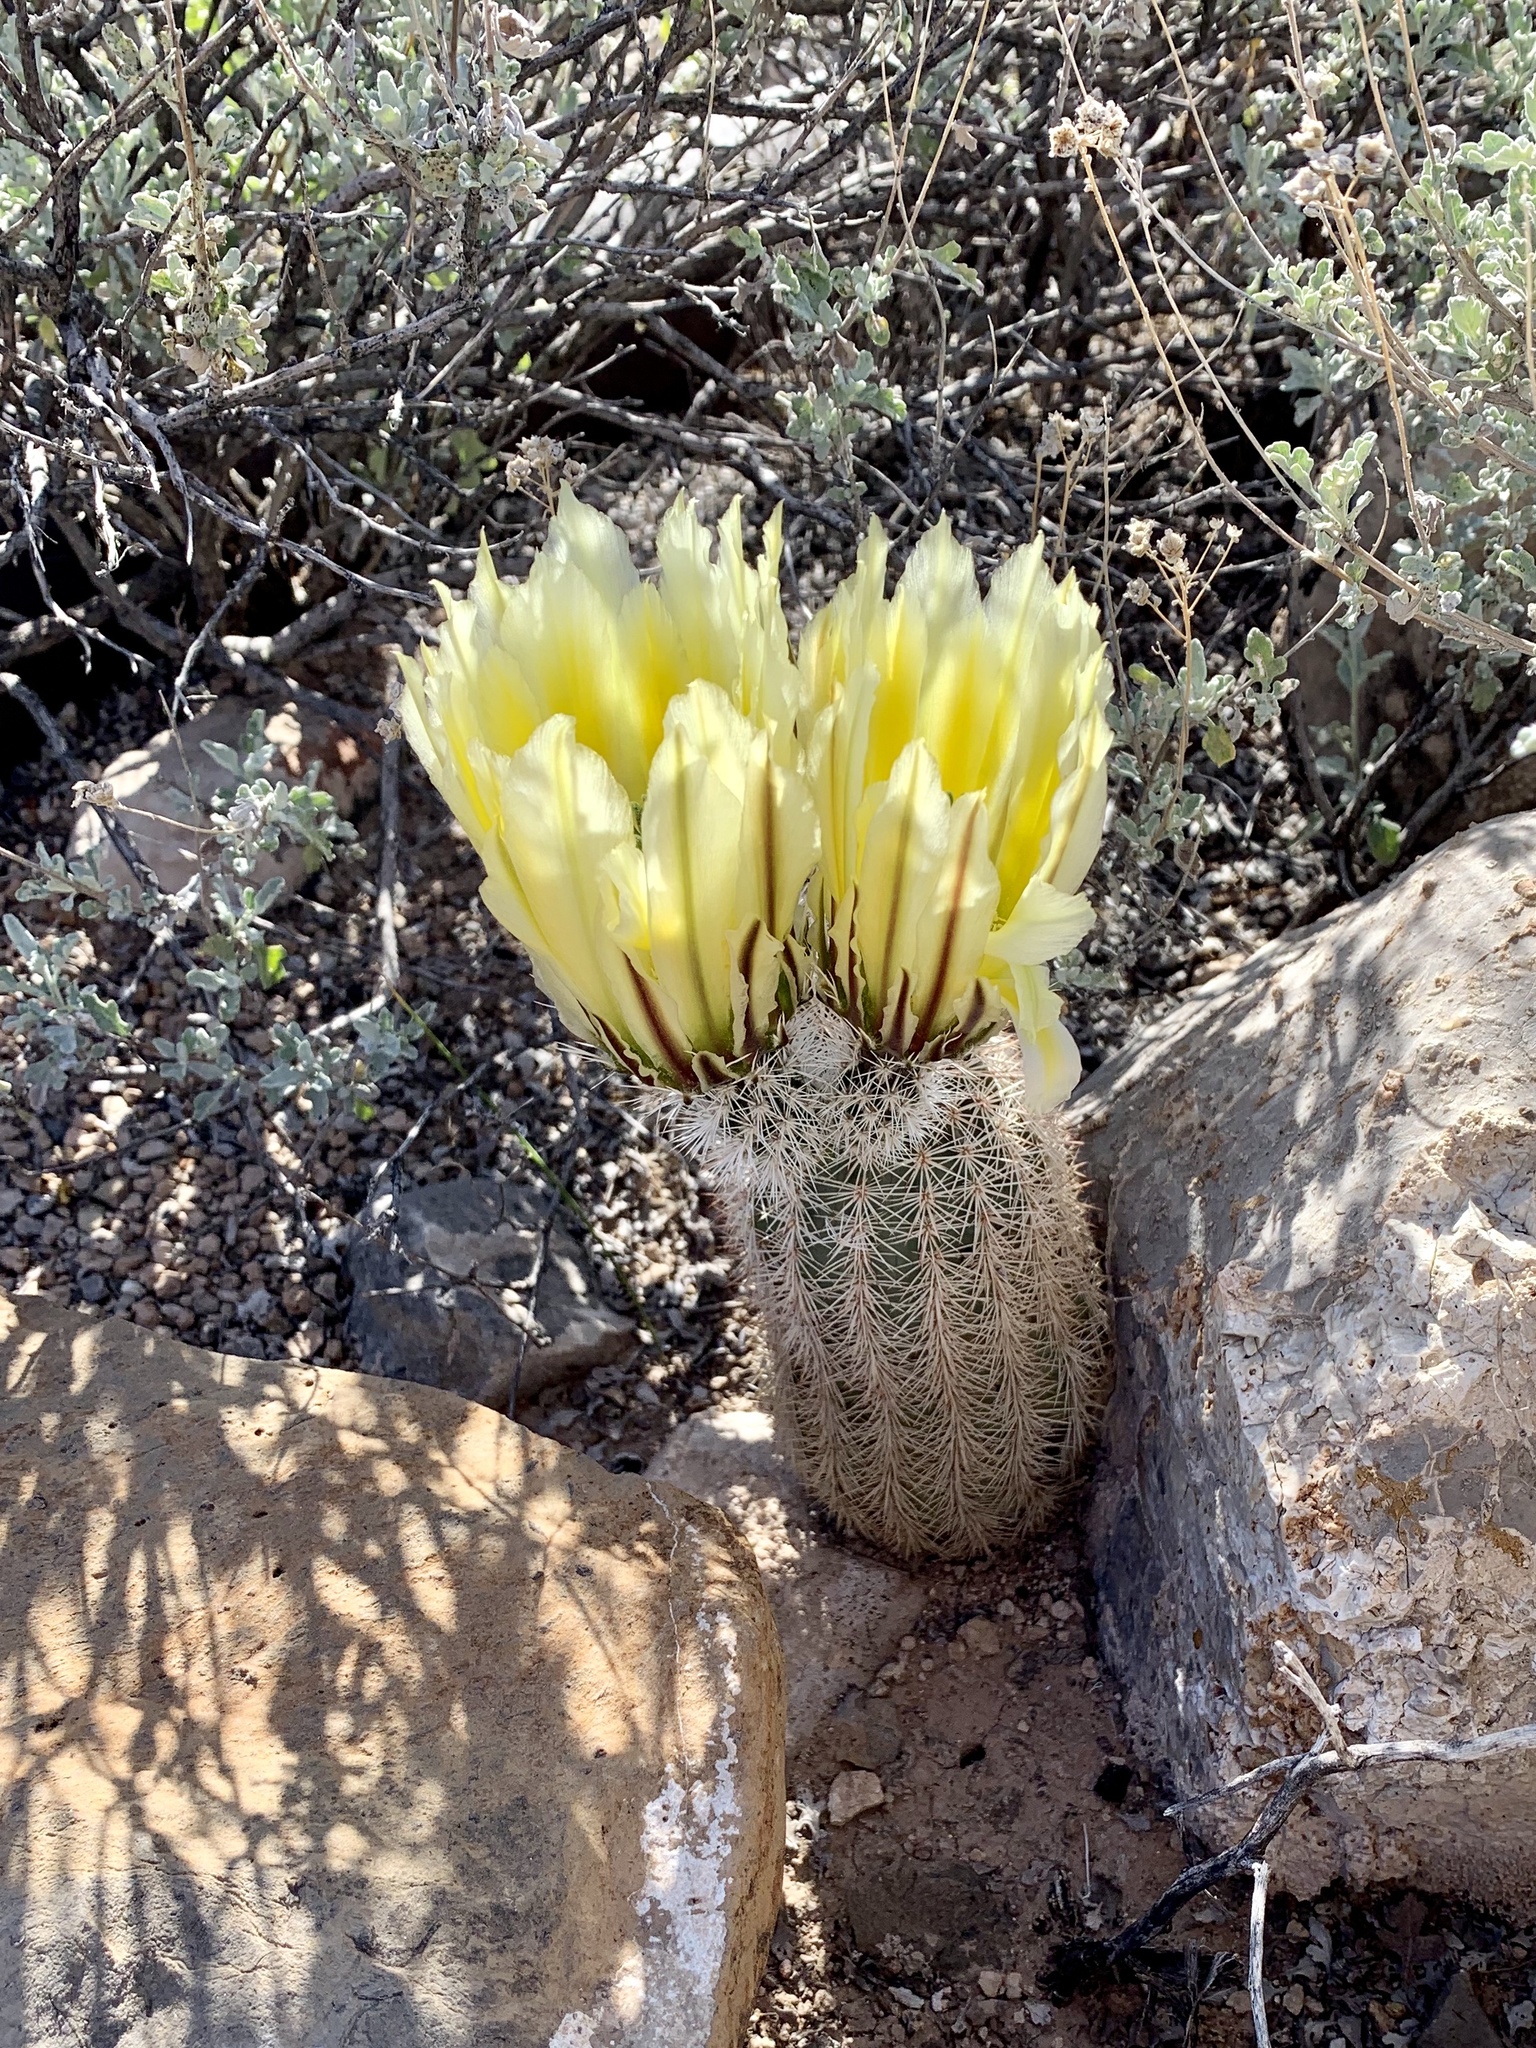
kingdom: Plantae
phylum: Tracheophyta
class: Magnoliopsida
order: Caryophyllales
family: Cactaceae
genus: Echinocereus
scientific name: Echinocereus dasyacanthus
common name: Spiny hedgehog cactus
